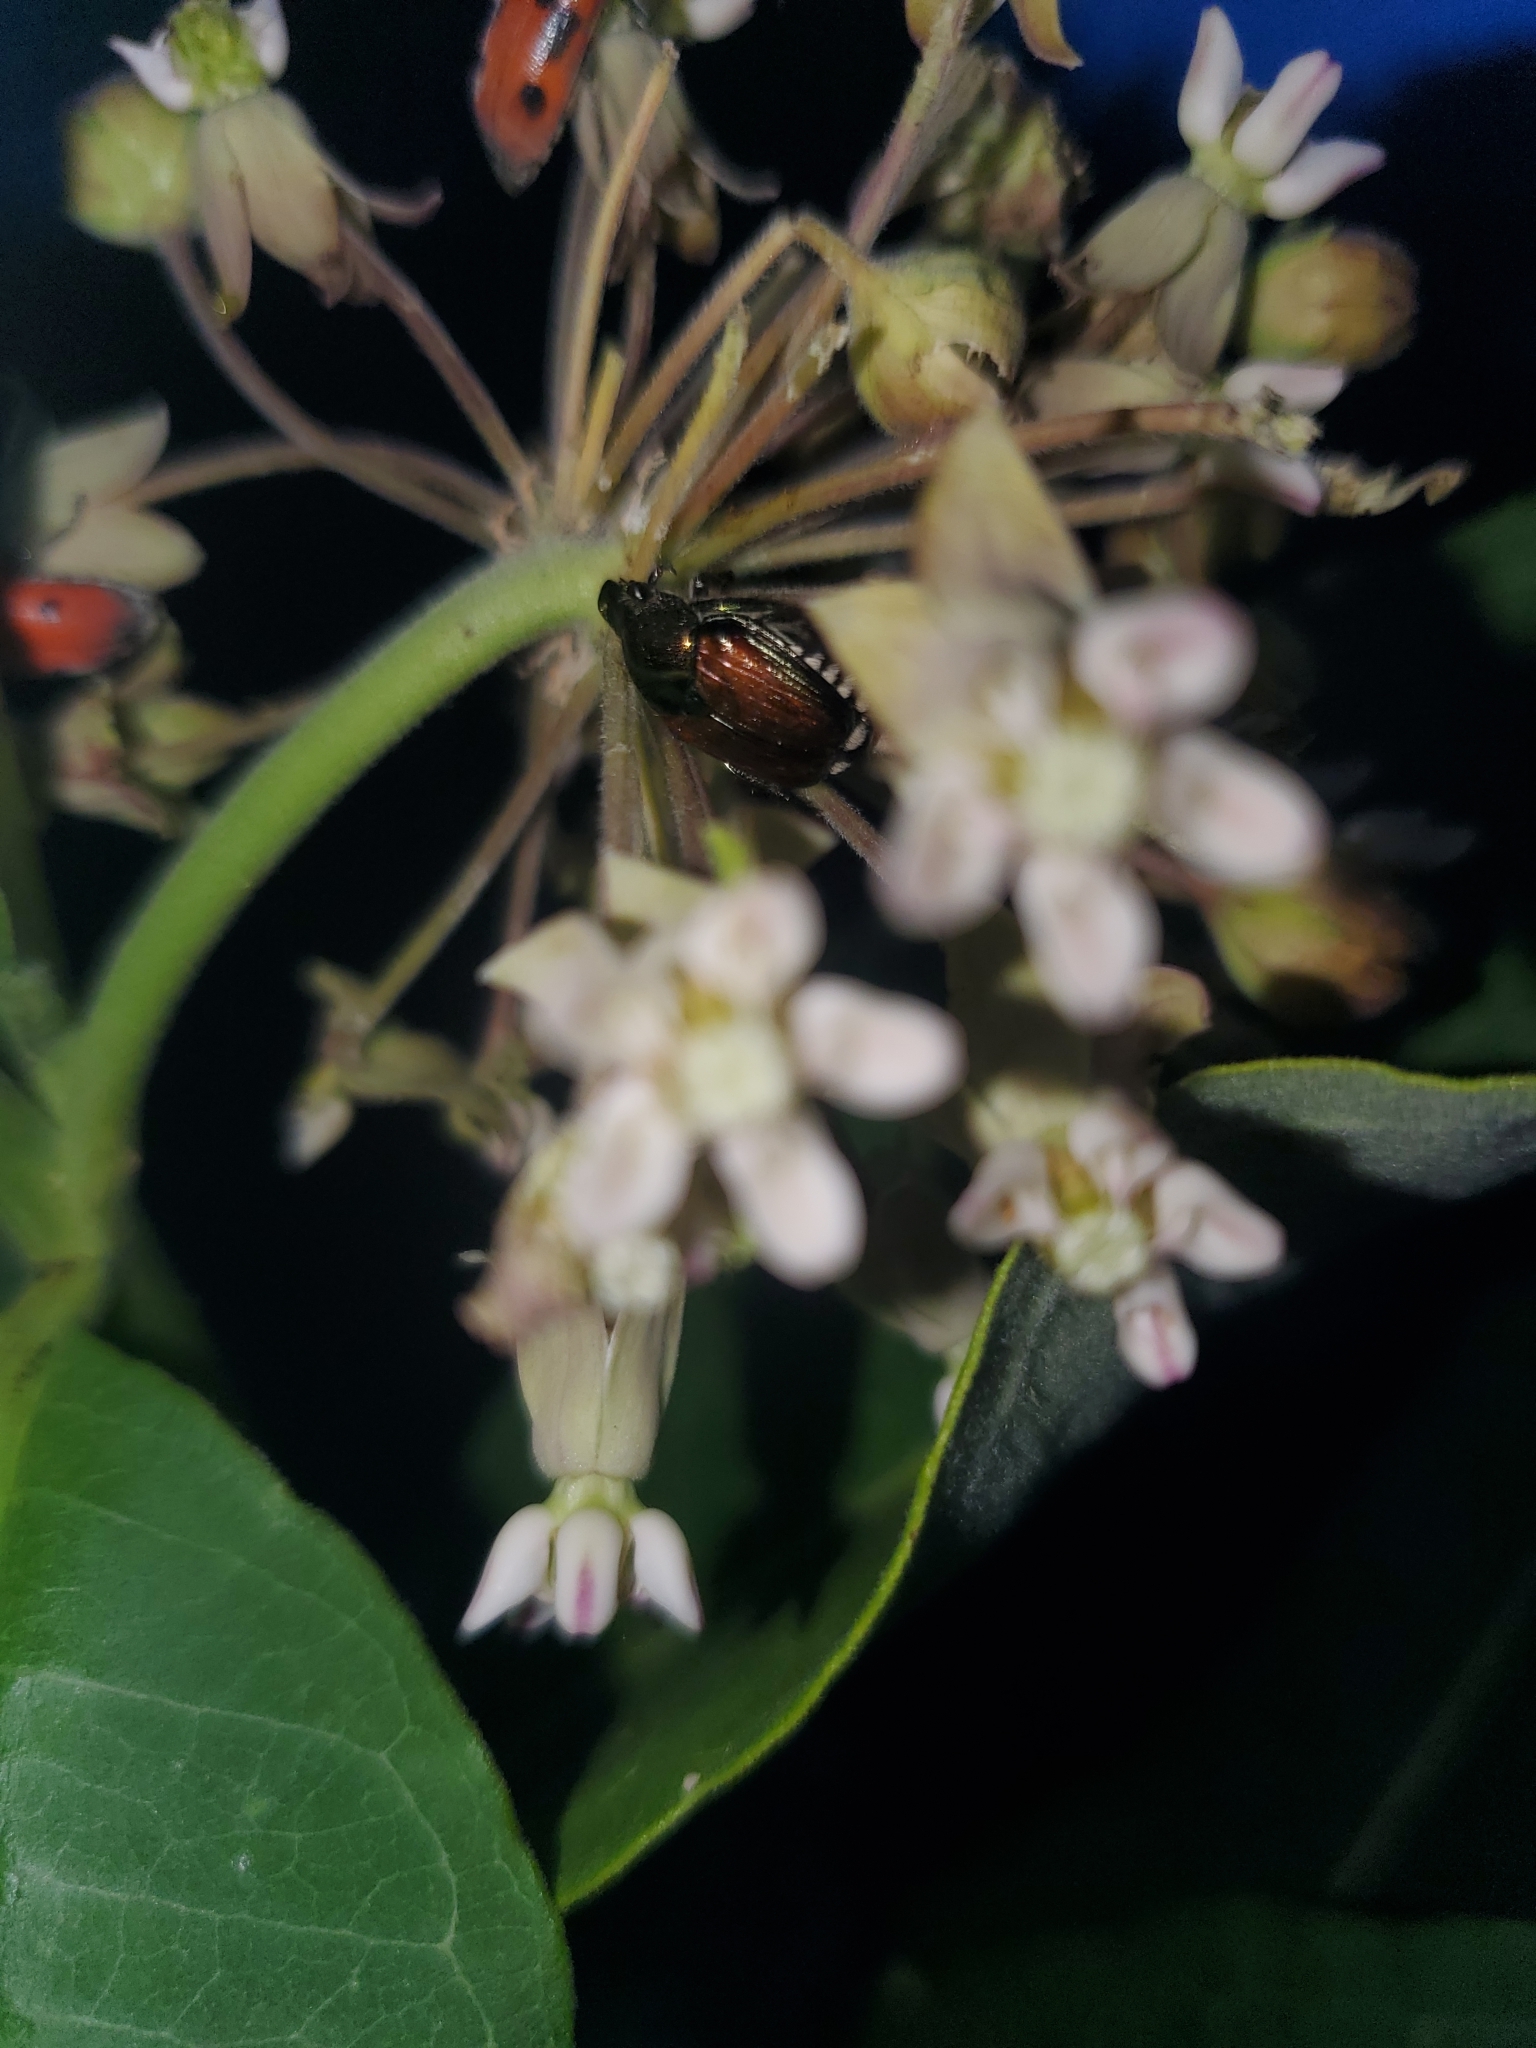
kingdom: Animalia
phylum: Arthropoda
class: Insecta
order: Coleoptera
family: Scarabaeidae
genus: Popillia
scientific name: Popillia japonica
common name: Japanese beetle
